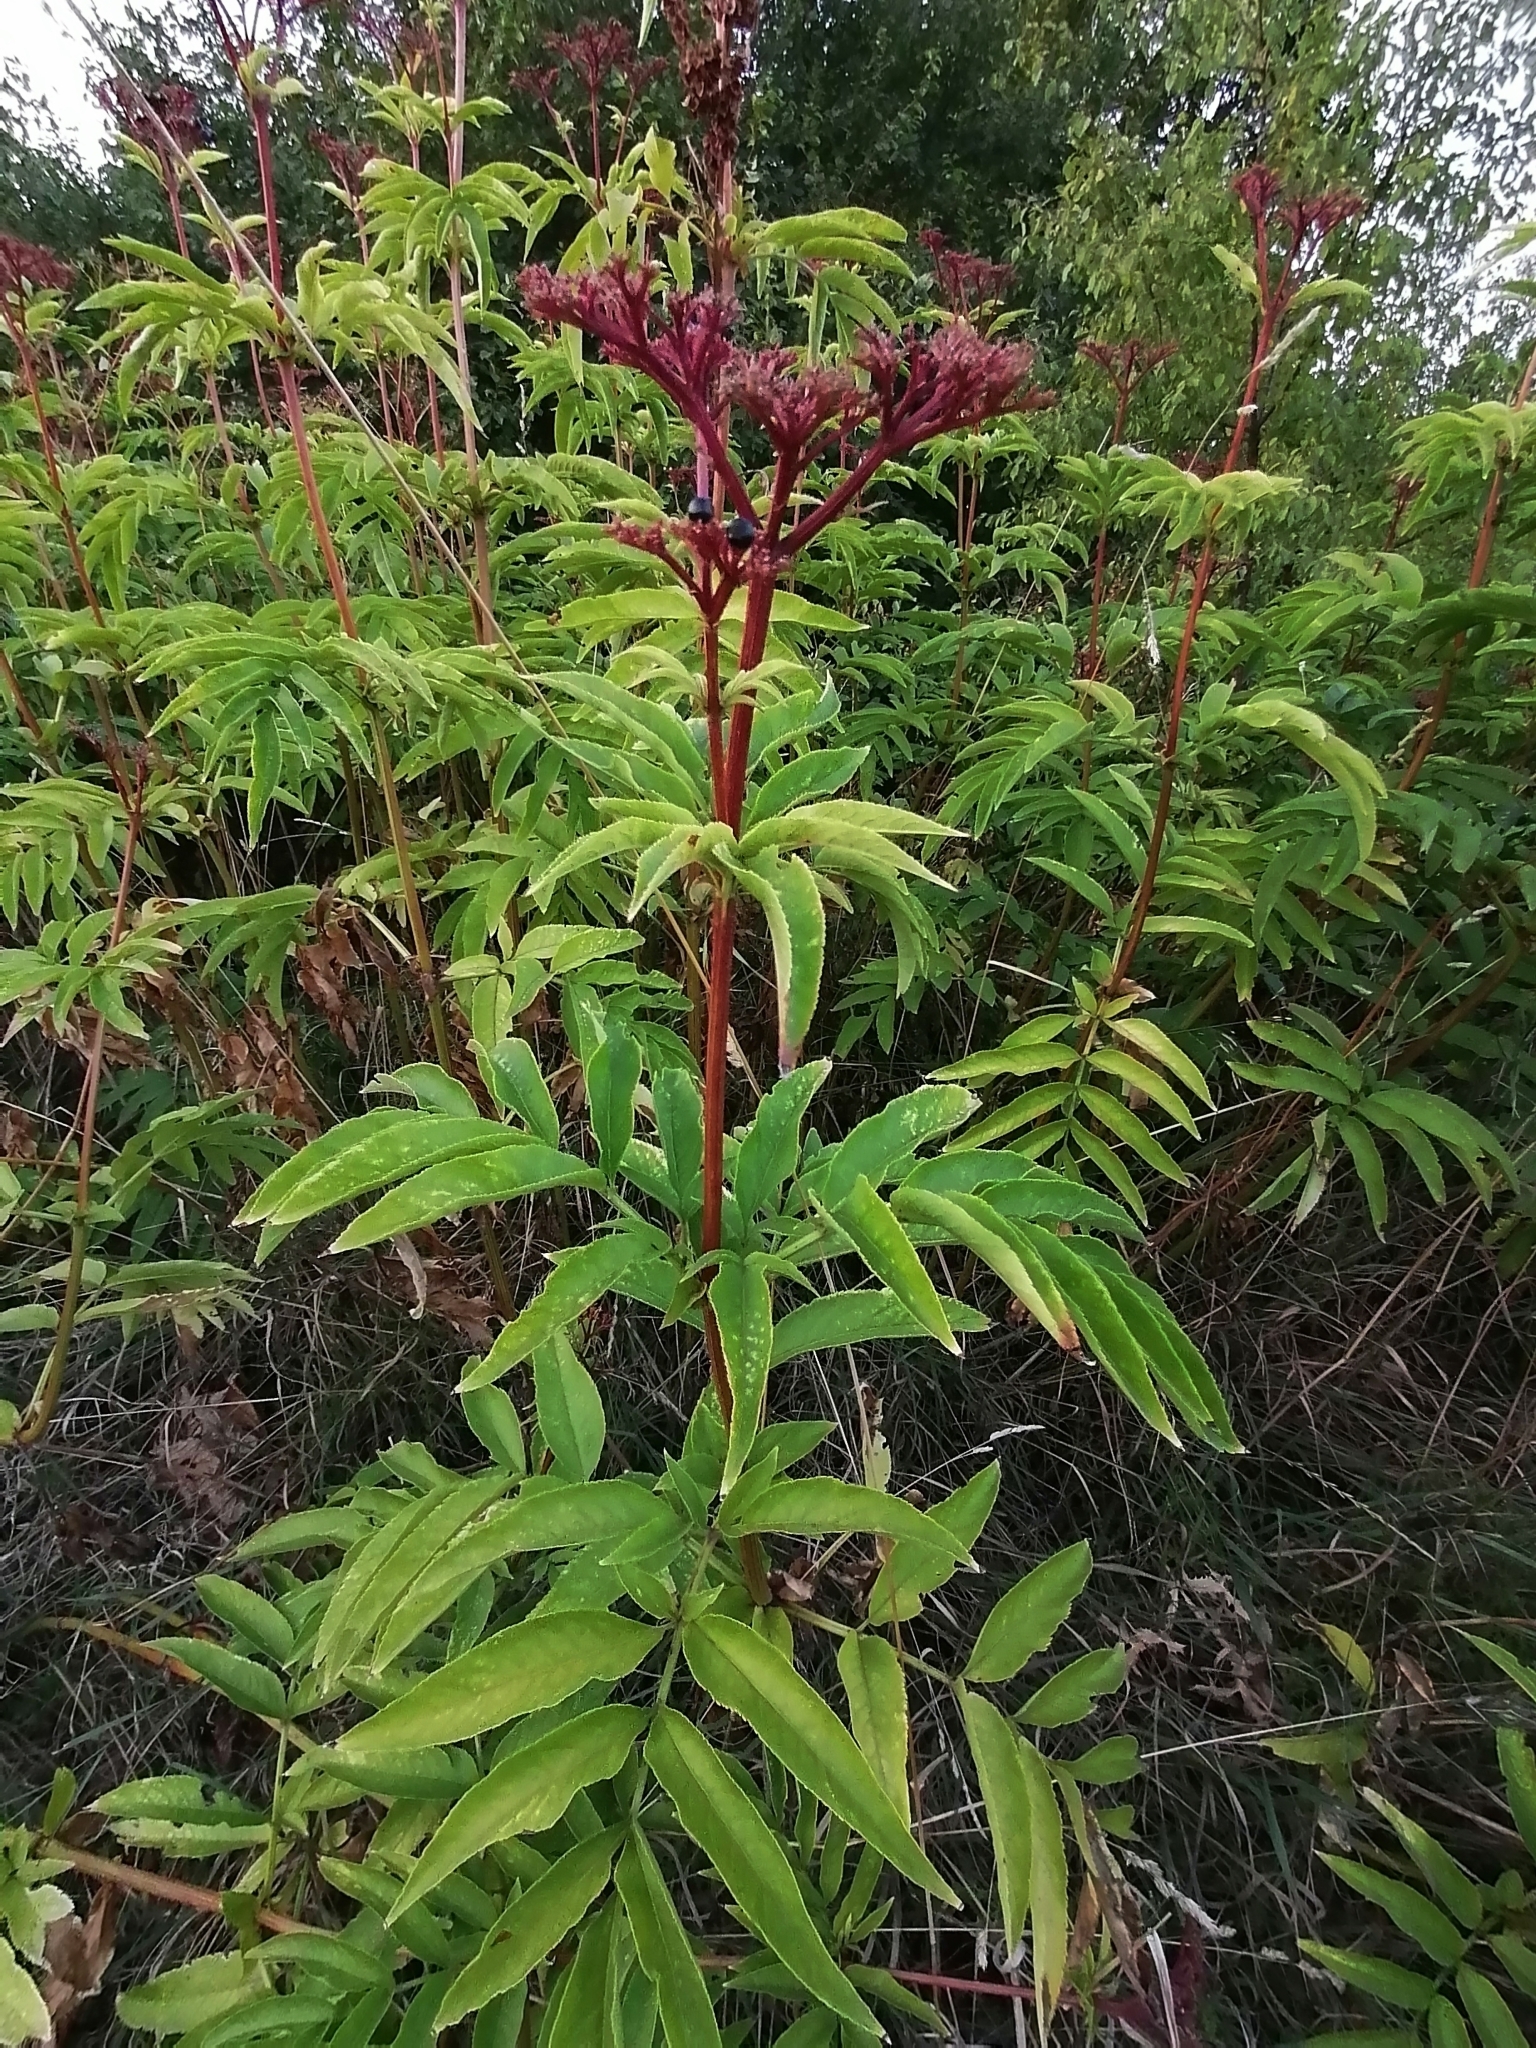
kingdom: Plantae
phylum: Tracheophyta
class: Magnoliopsida
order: Dipsacales
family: Viburnaceae
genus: Sambucus
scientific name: Sambucus ebulus
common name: Dwarf elder
